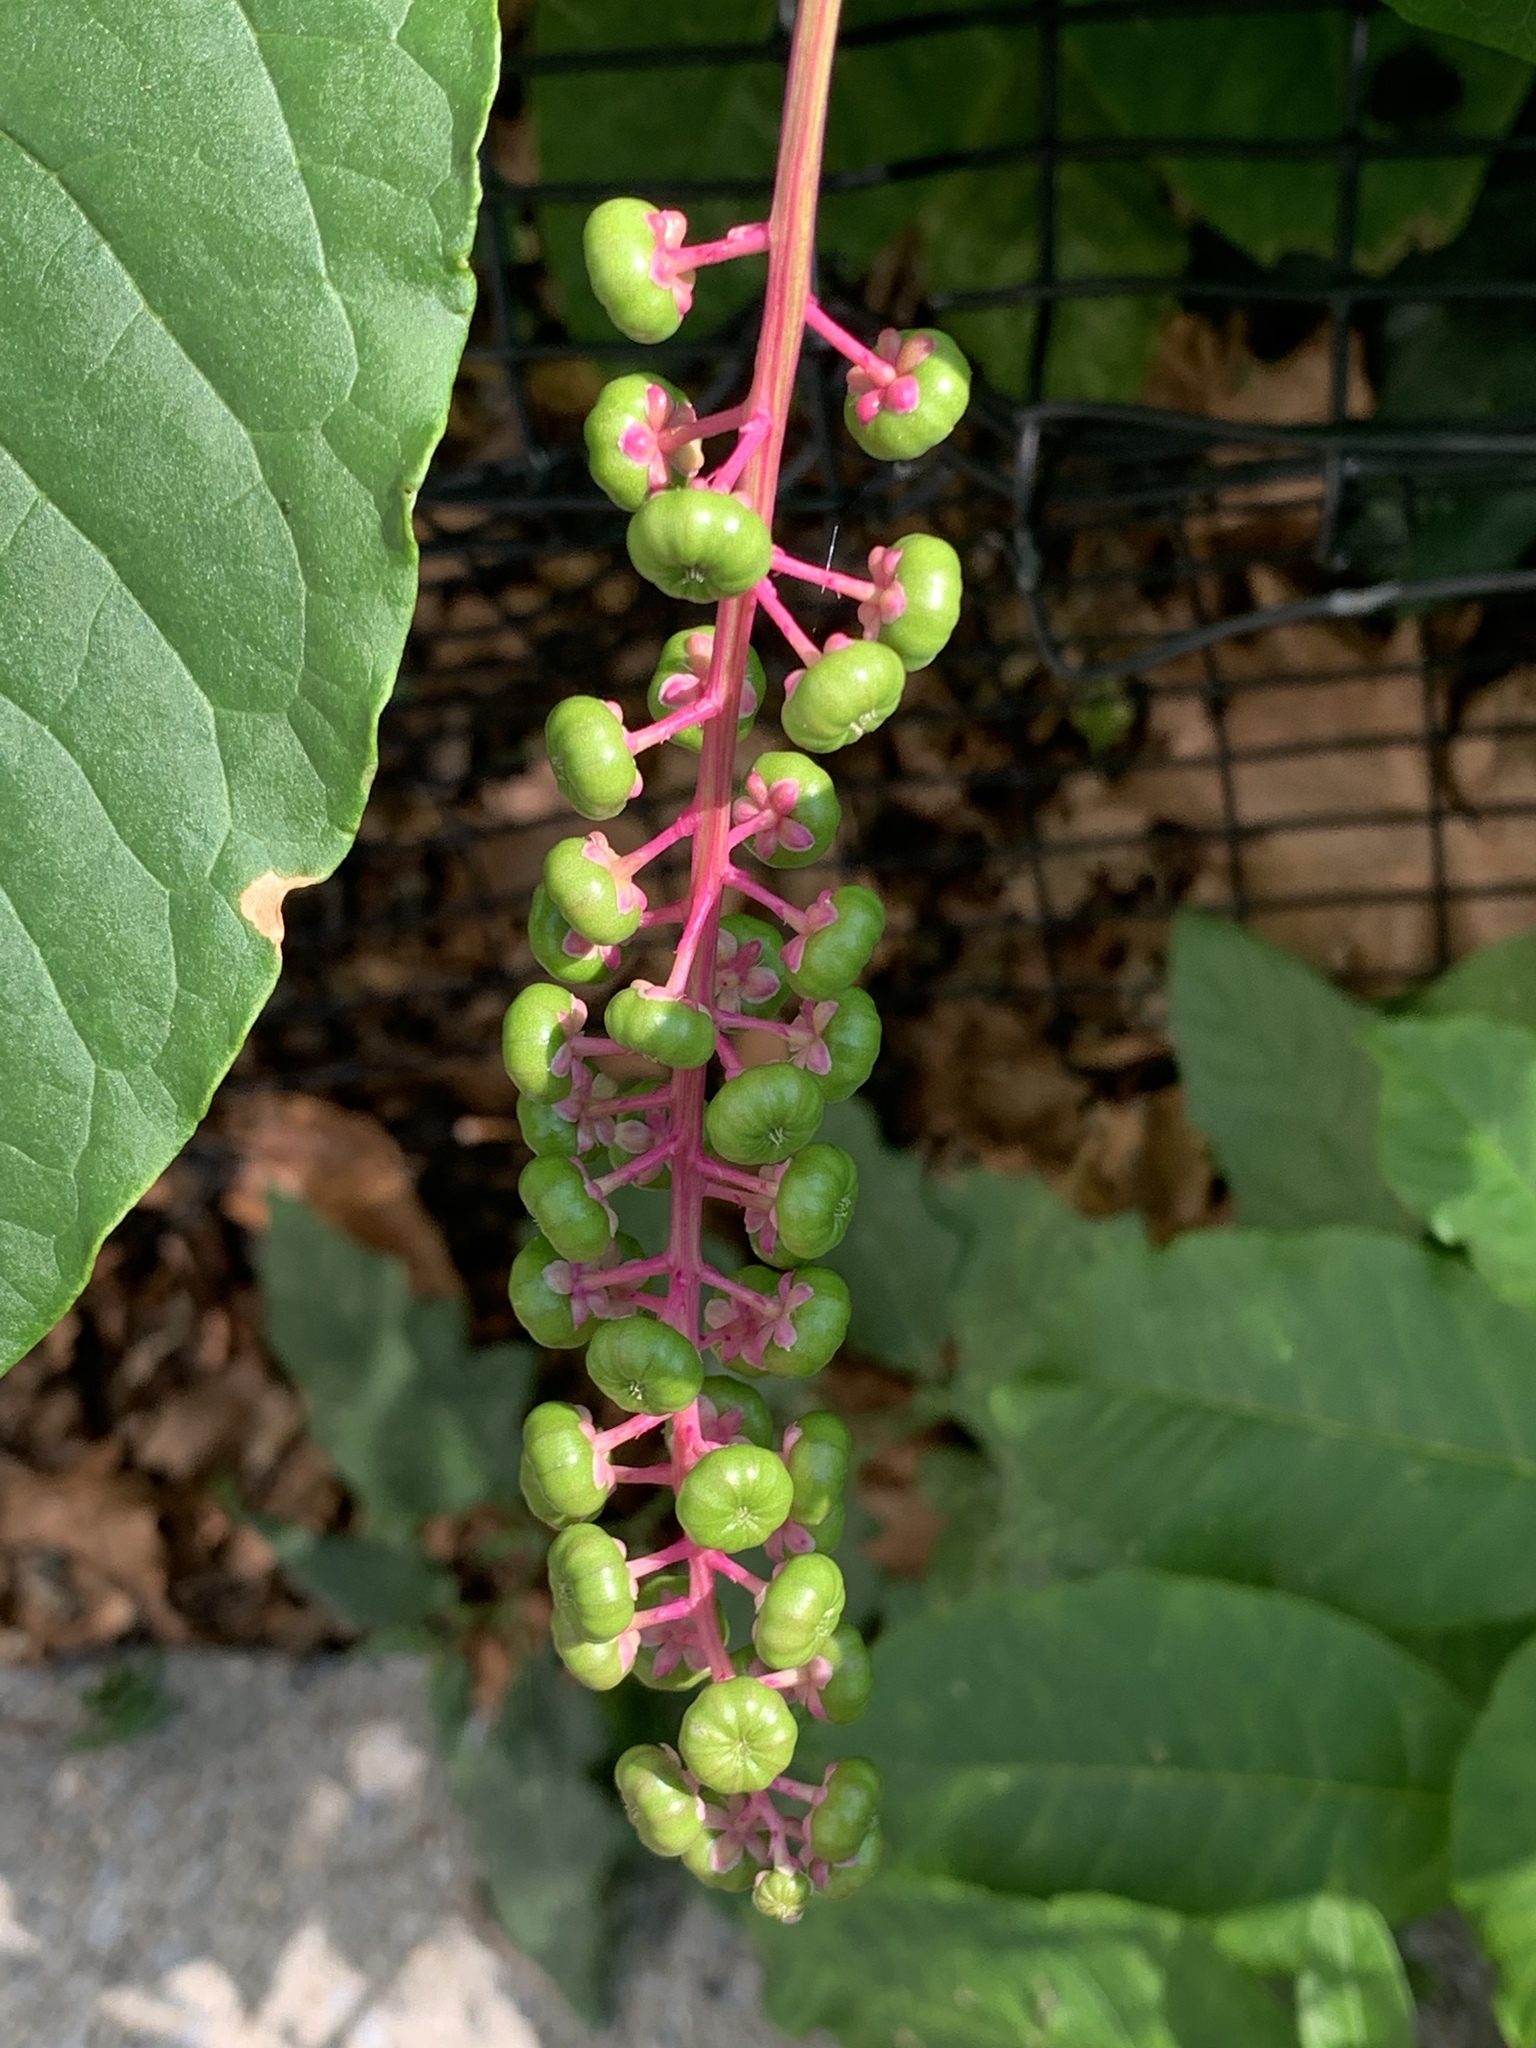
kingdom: Plantae
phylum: Tracheophyta
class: Magnoliopsida
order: Caryophyllales
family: Phytolaccaceae
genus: Phytolacca
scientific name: Phytolacca americana
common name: American pokeweed
